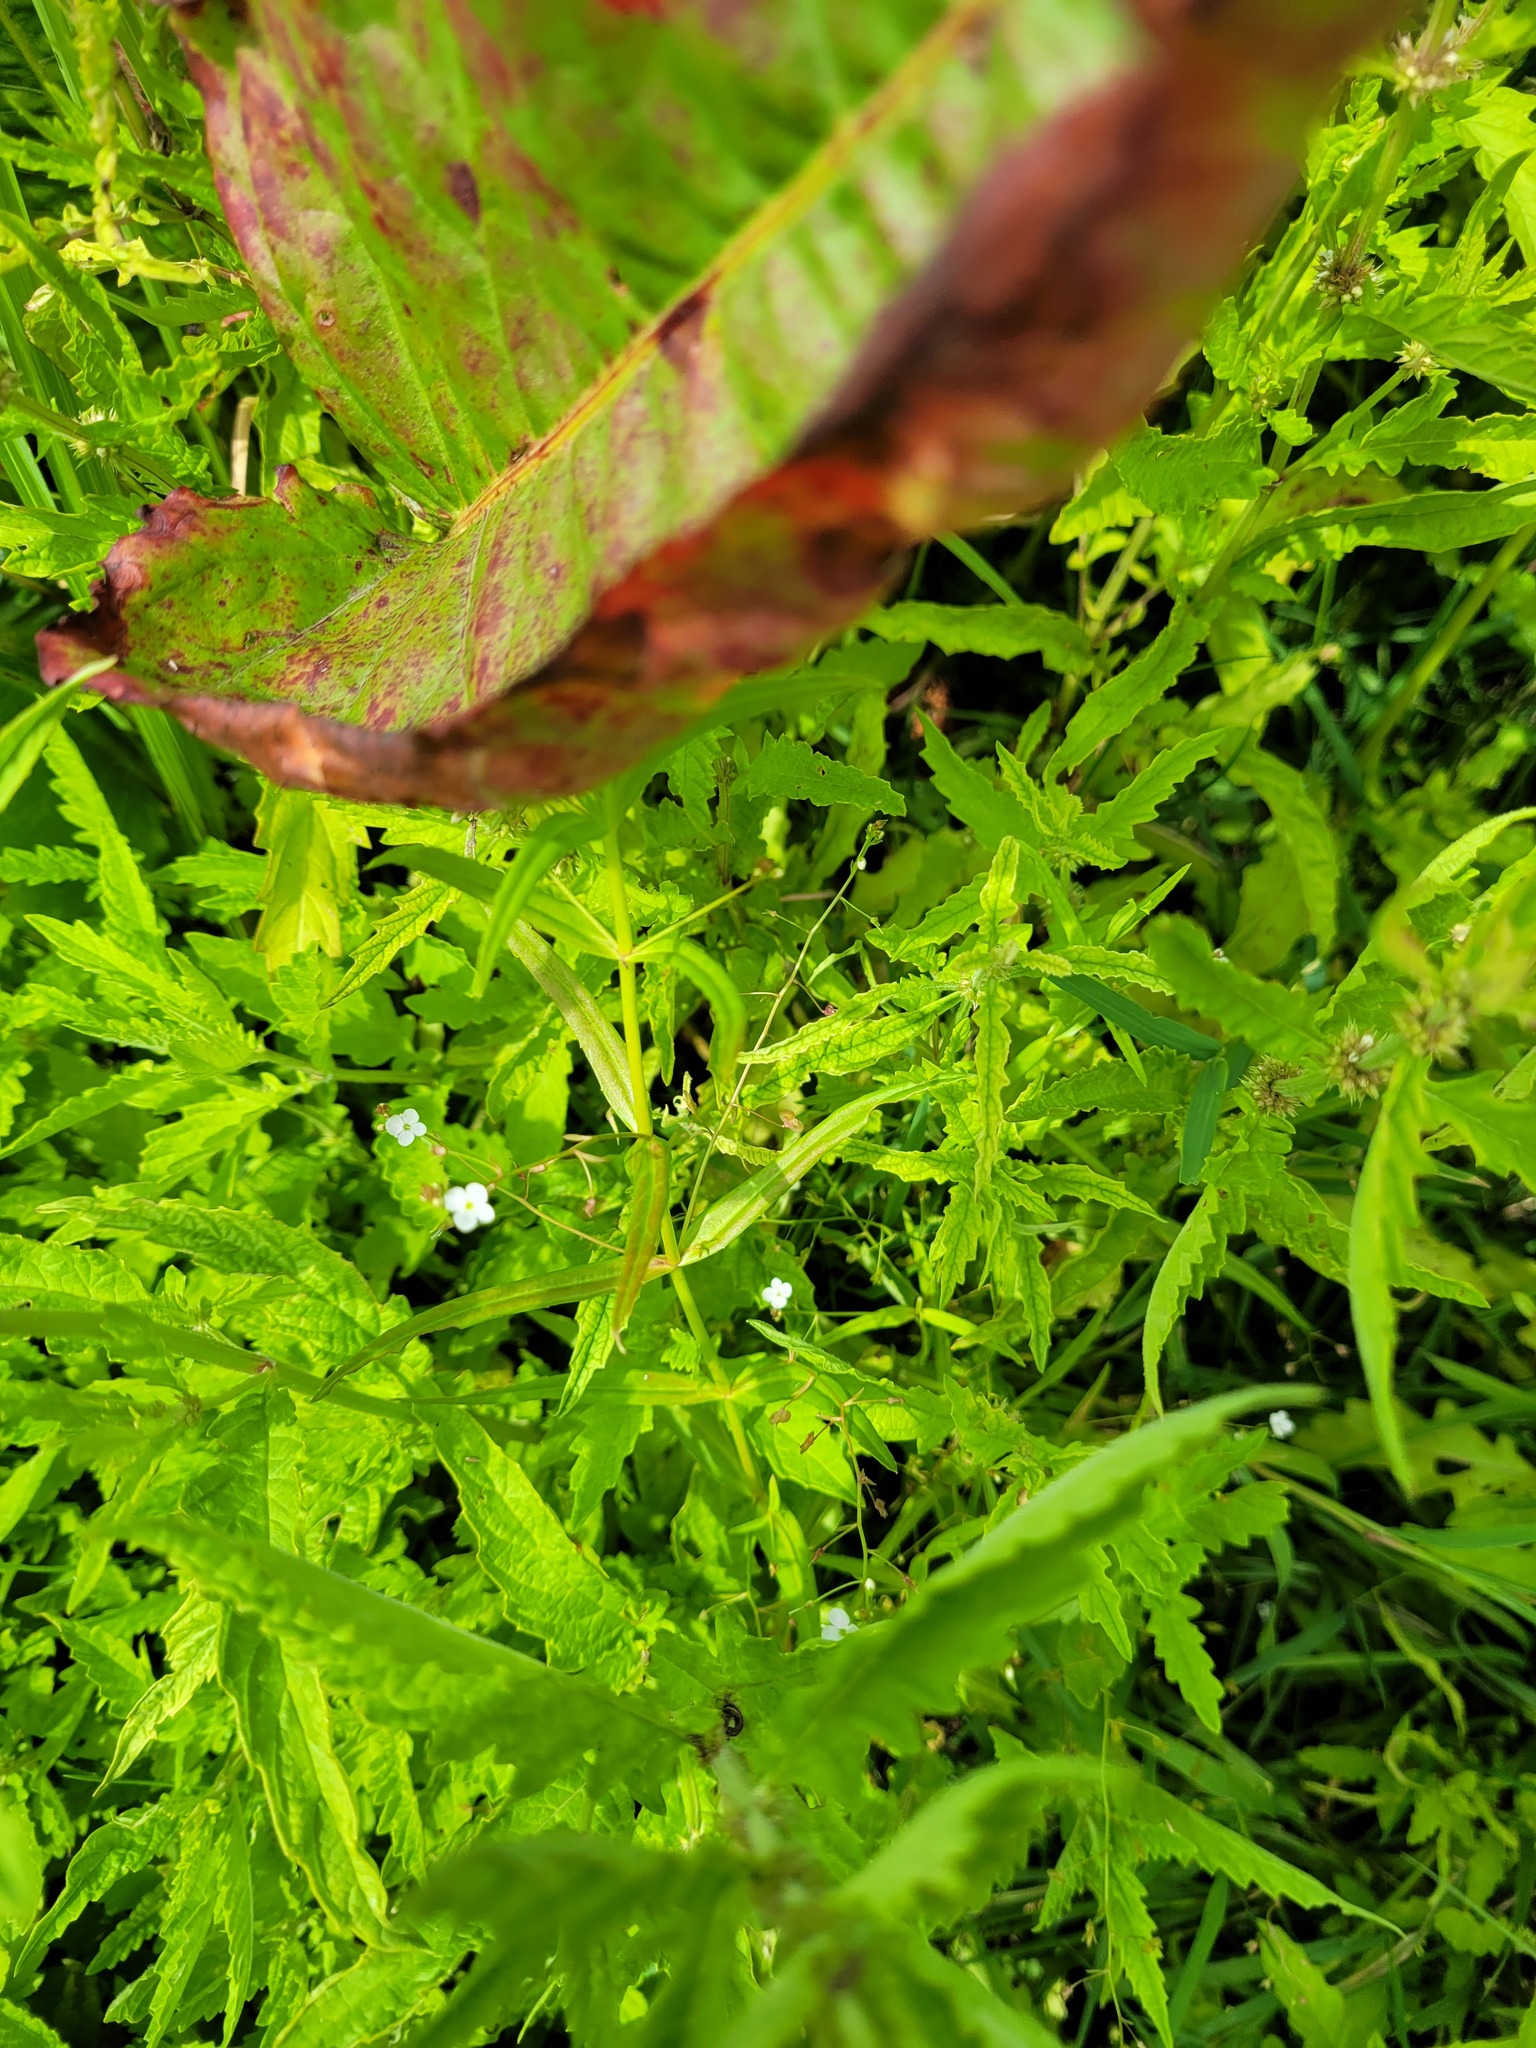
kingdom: Plantae
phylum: Tracheophyta
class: Magnoliopsida
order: Lamiales
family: Plantaginaceae
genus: Veronica
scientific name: Veronica scutellata
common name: Marsh speedwell
